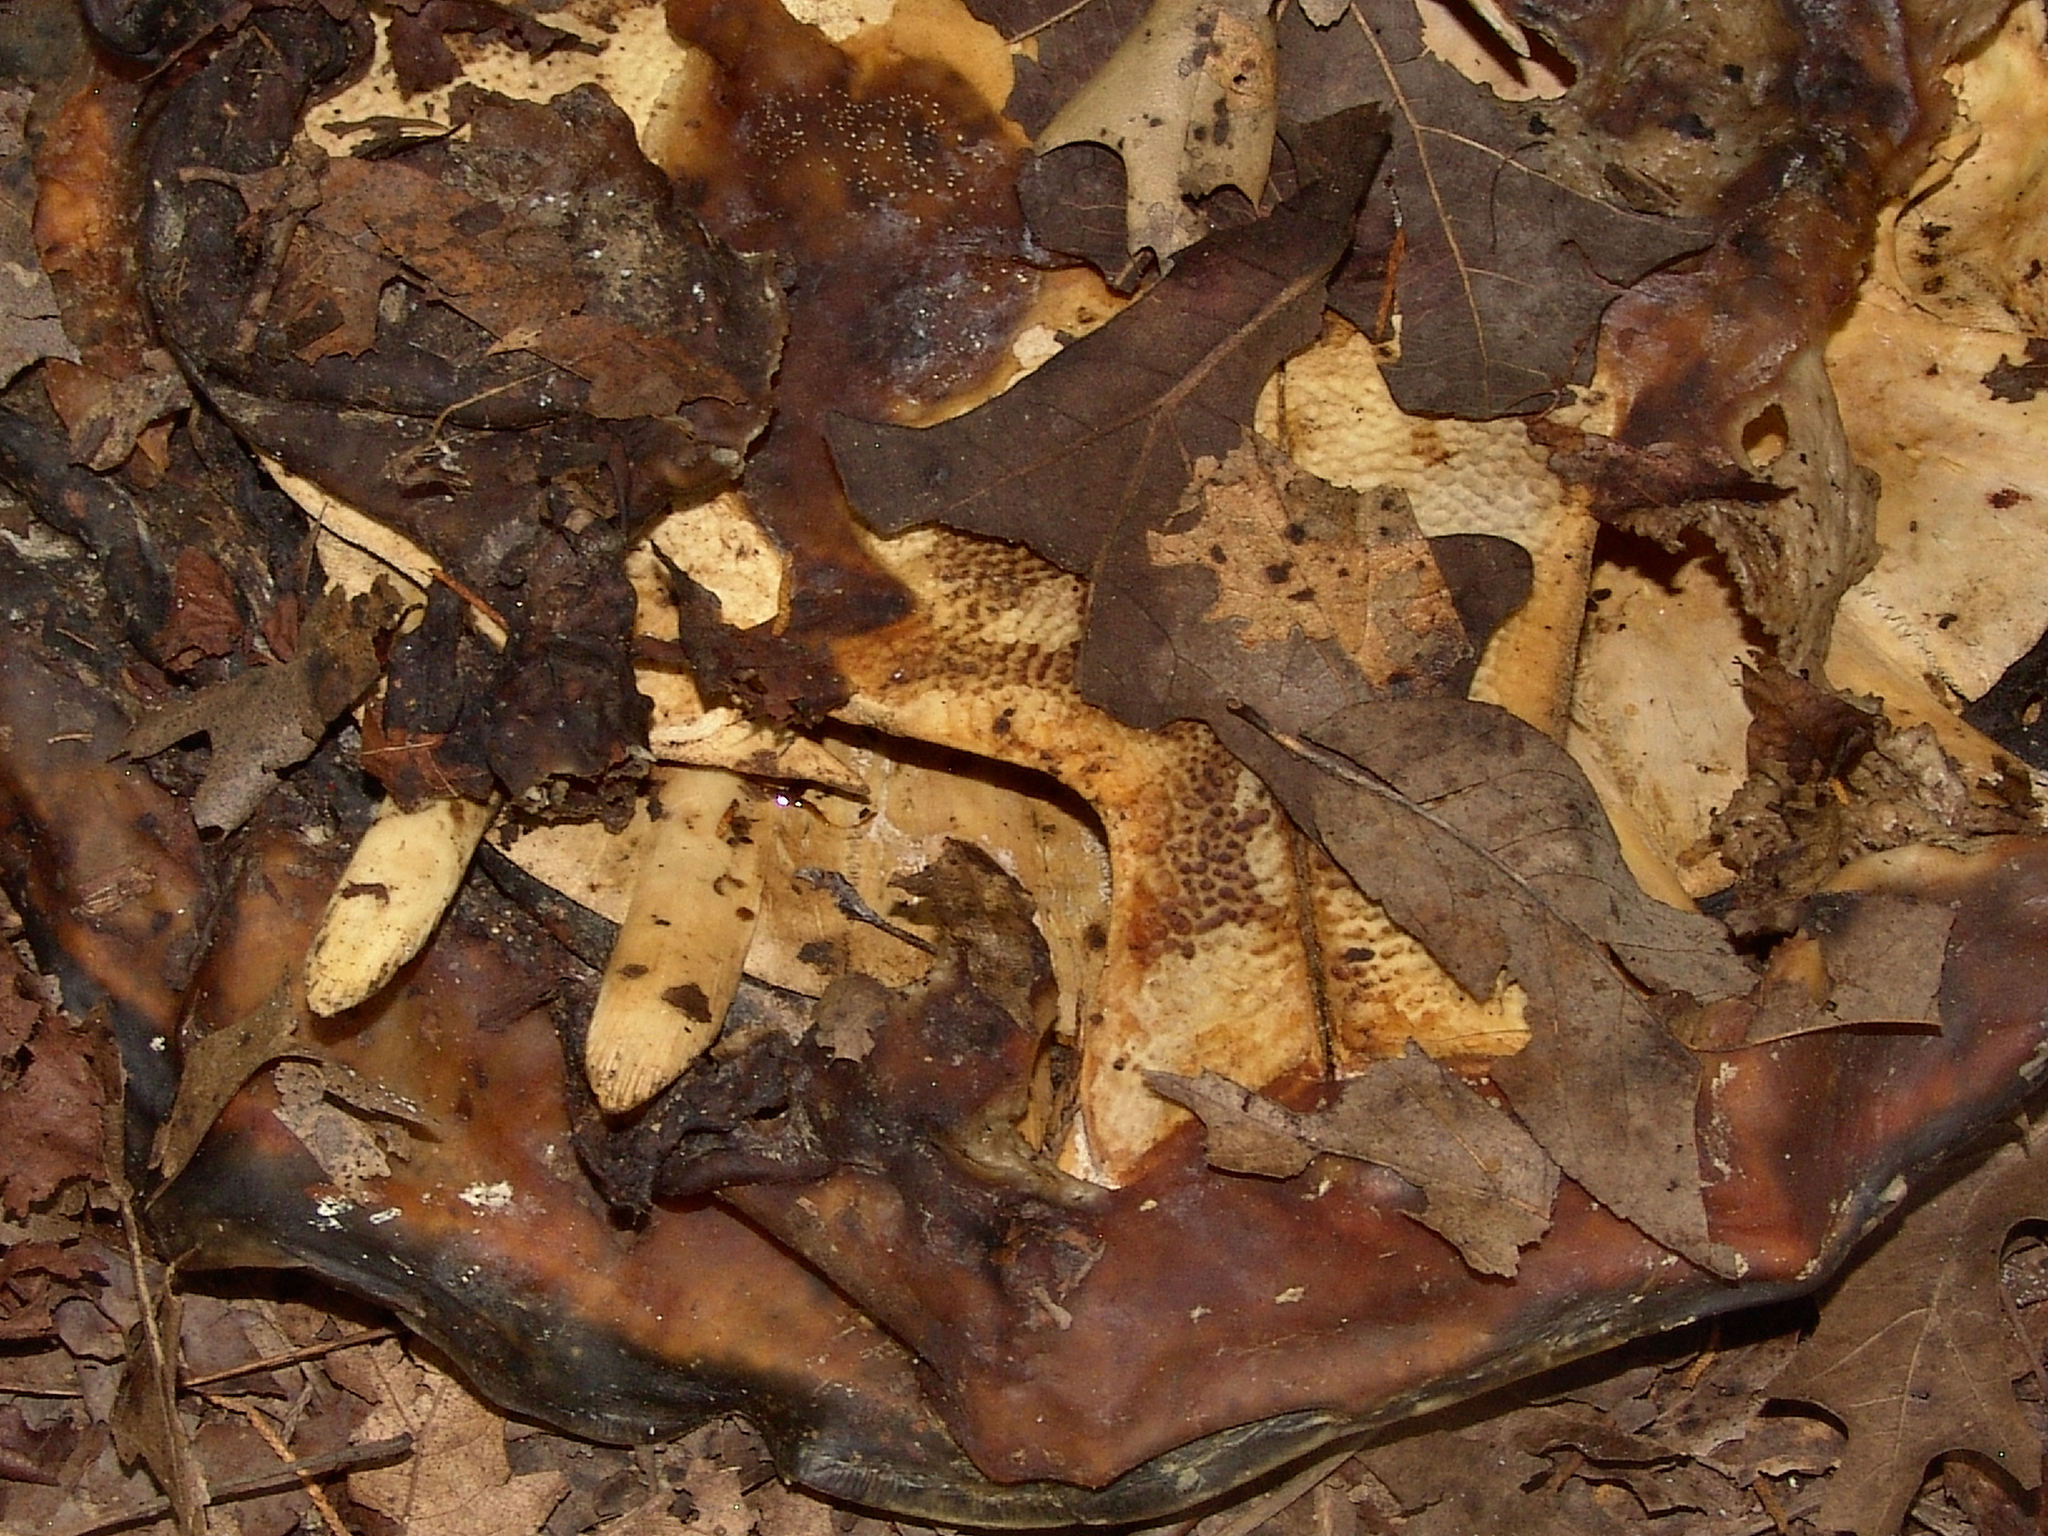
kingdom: Animalia
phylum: Chordata
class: Testudines
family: Trionychidae
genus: Apalone
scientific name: Apalone spinifera
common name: Spiny softshell turtle
